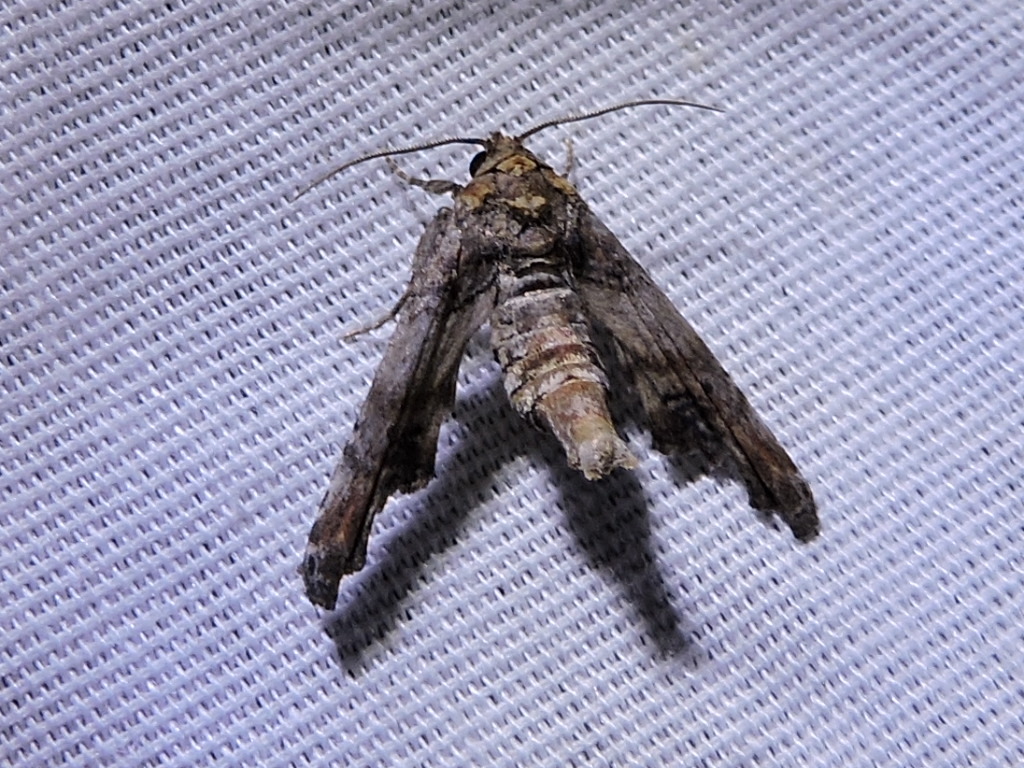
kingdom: Animalia
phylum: Arthropoda
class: Insecta
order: Lepidoptera
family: Euteliidae
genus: Marathyssa
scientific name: Marathyssa inficita
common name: Dark marathyssa moth
